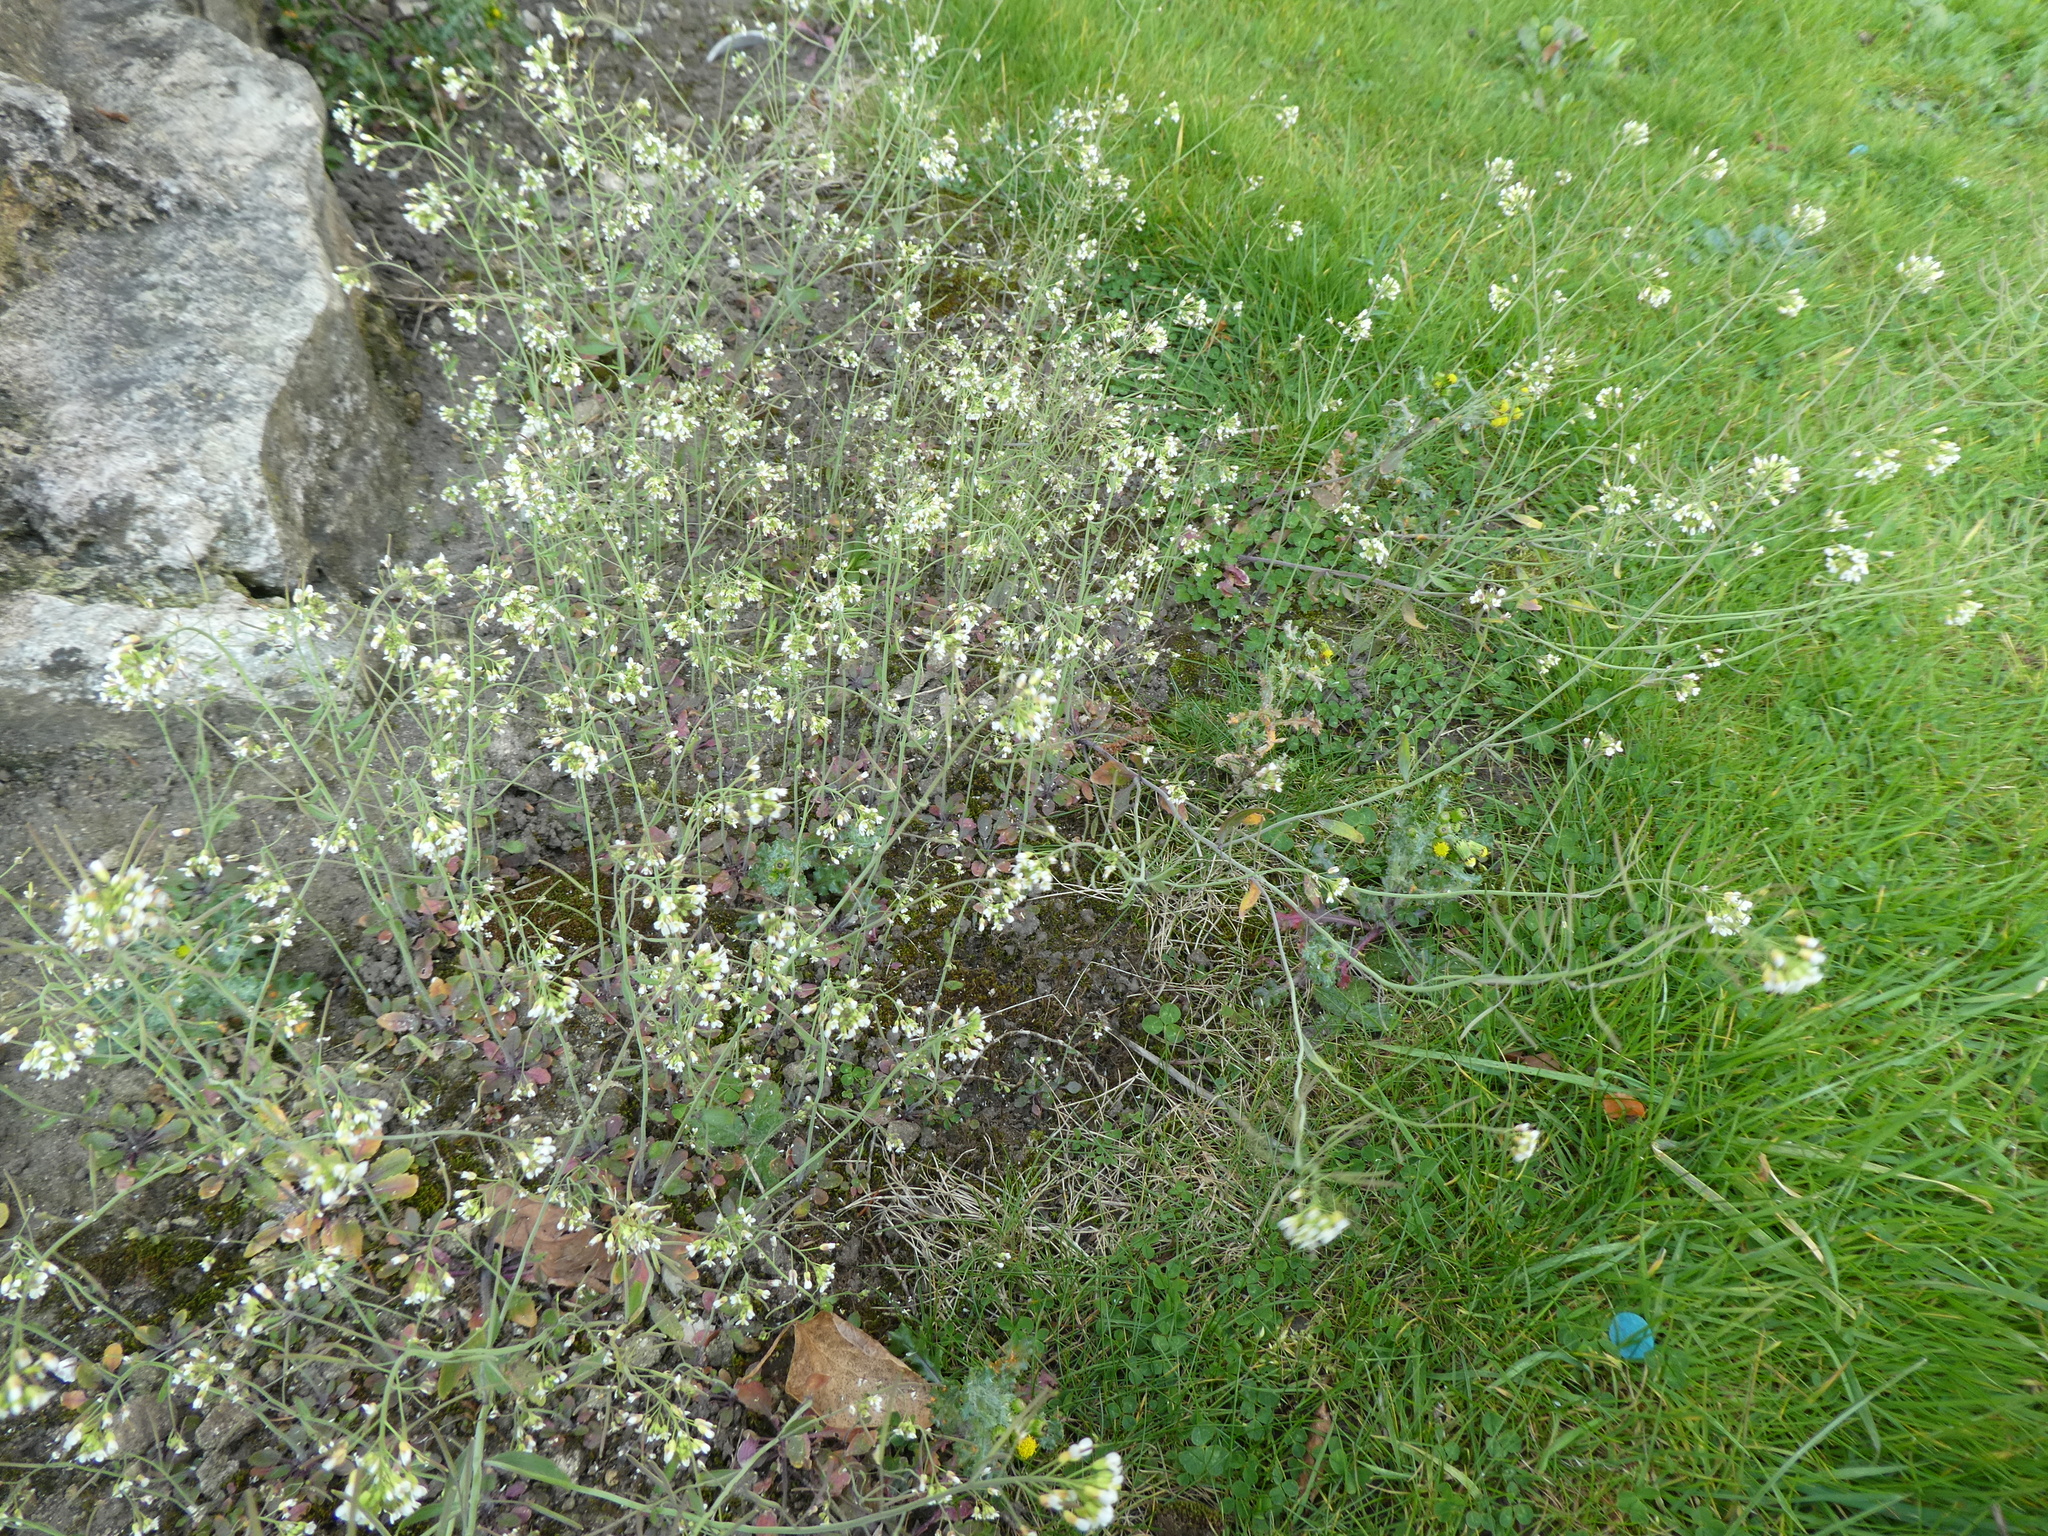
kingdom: Plantae
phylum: Tracheophyta
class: Magnoliopsida
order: Brassicales
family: Brassicaceae
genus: Arabidopsis
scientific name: Arabidopsis thaliana
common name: Thale cress
